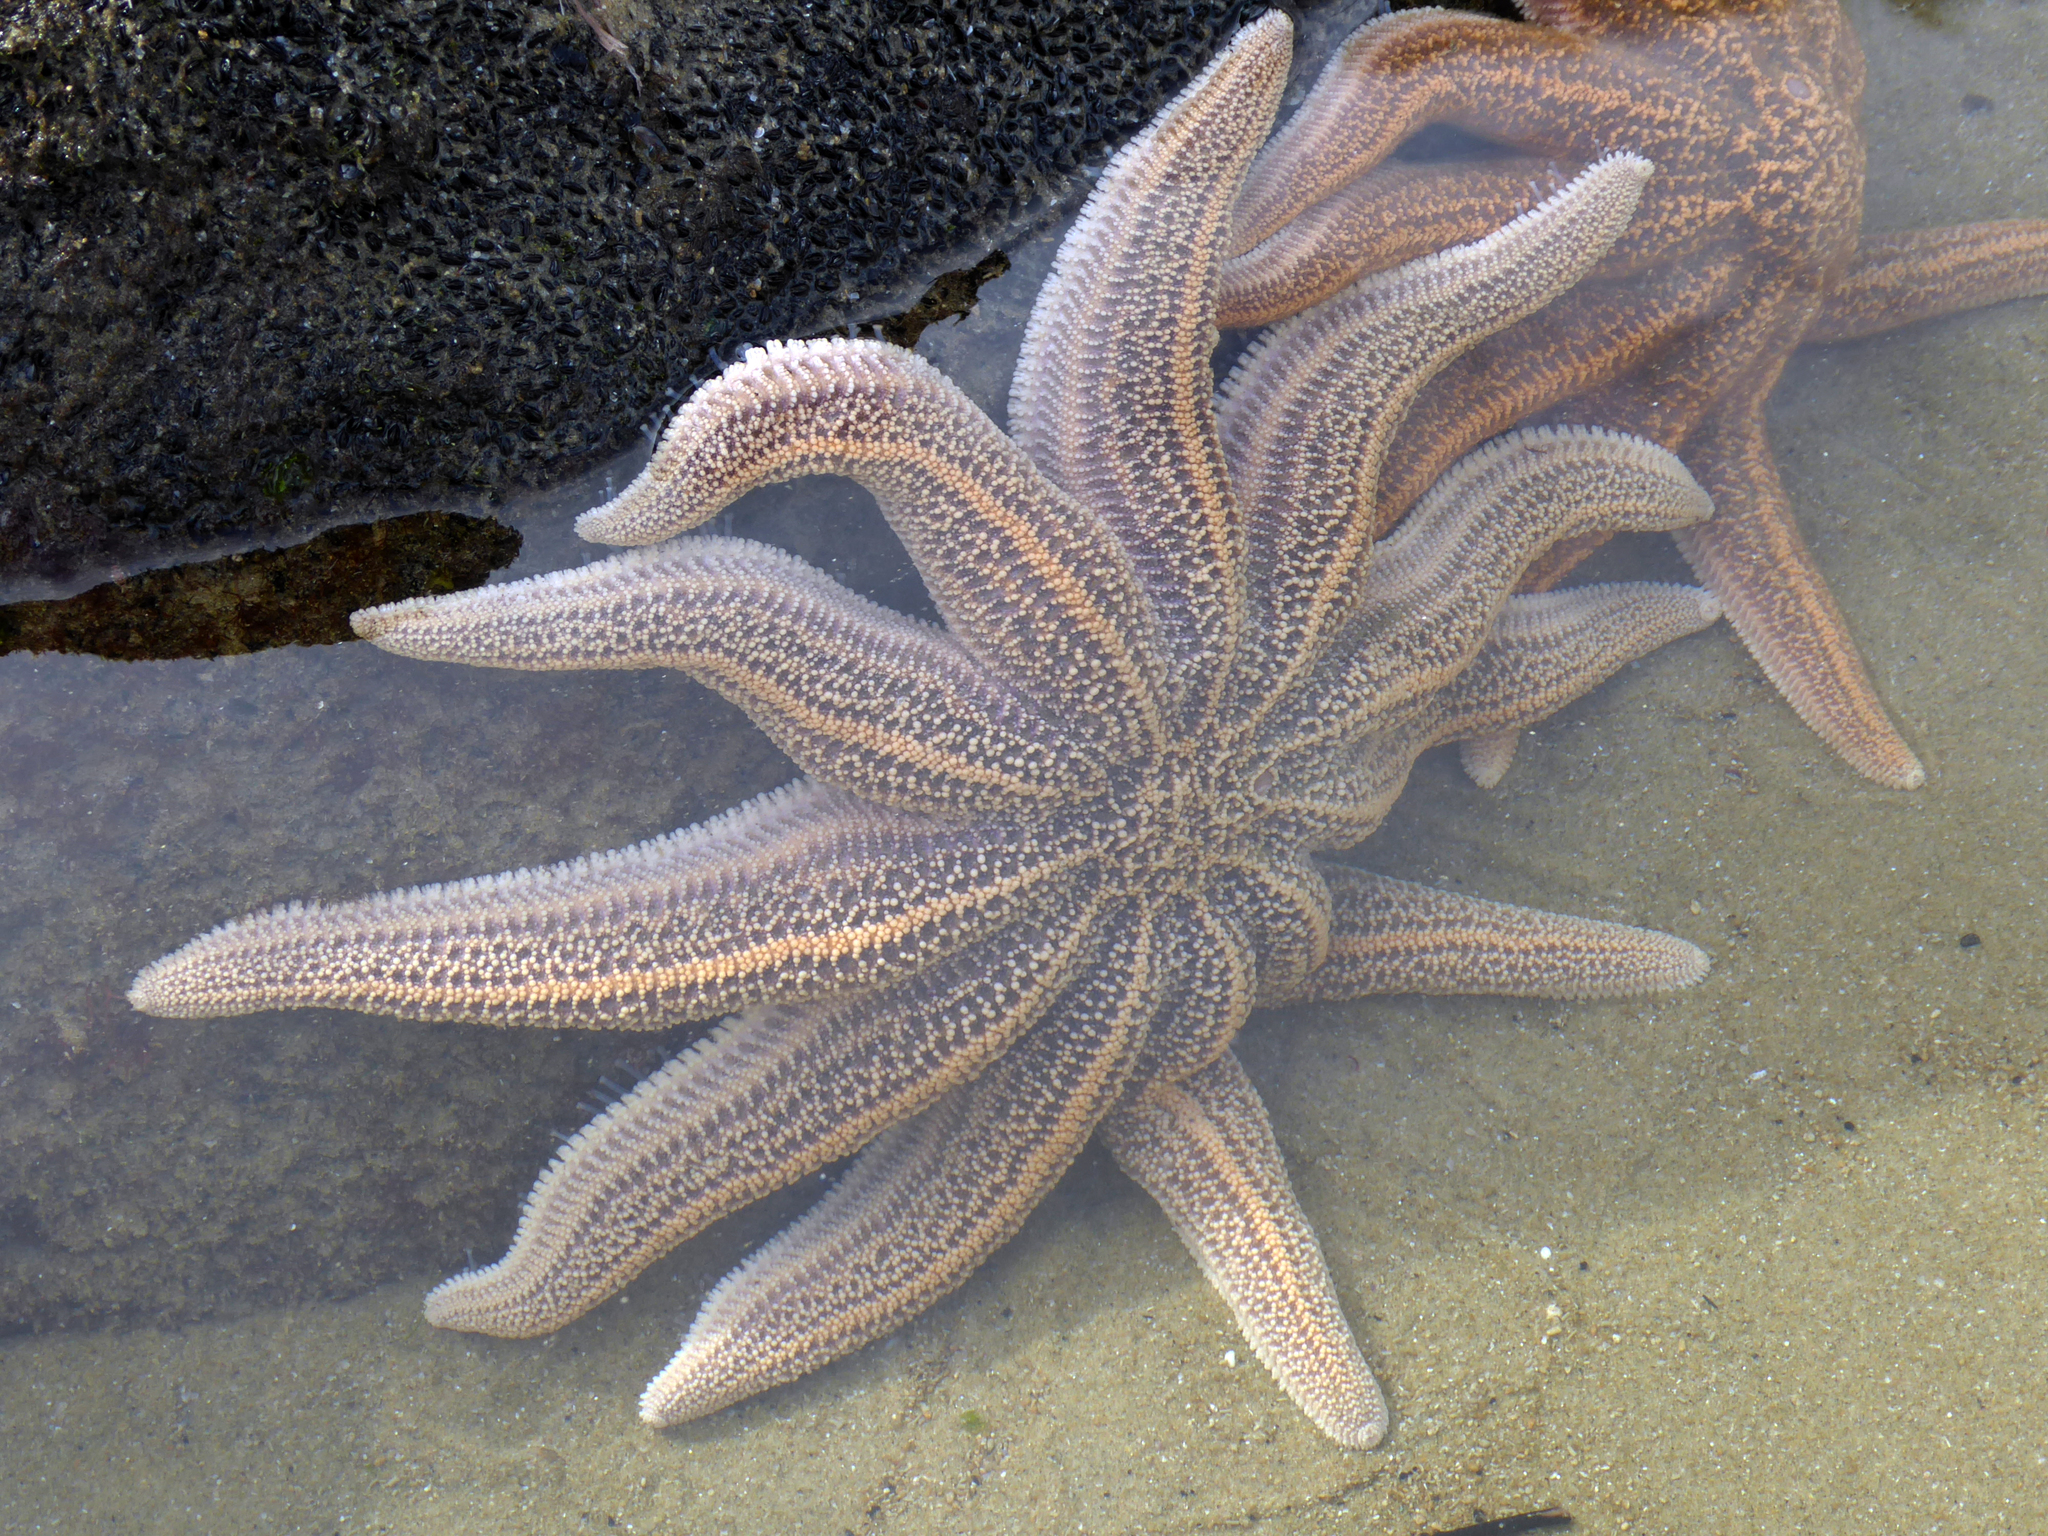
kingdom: Animalia
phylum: Echinodermata
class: Asteroidea
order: Forcipulatida
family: Stichasteridae
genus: Stichaster
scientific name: Stichaster australis
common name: Reef starfish
